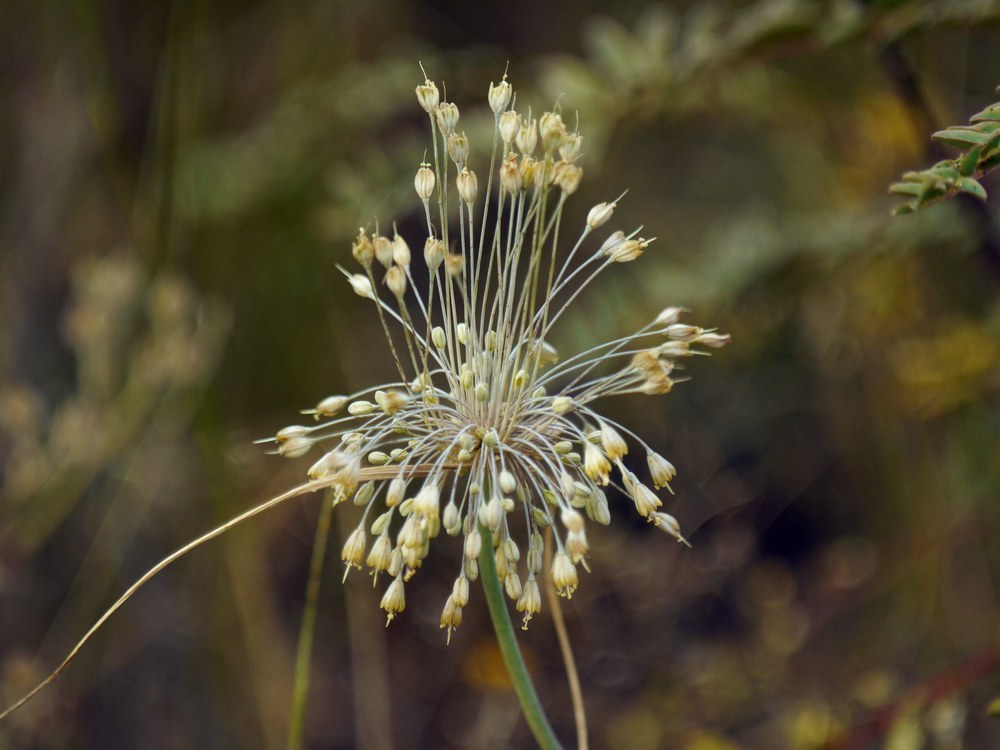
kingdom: Plantae
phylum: Tracheophyta
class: Liliopsida
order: Asparagales
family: Amaryllidaceae
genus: Allium
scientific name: Allium flavum
